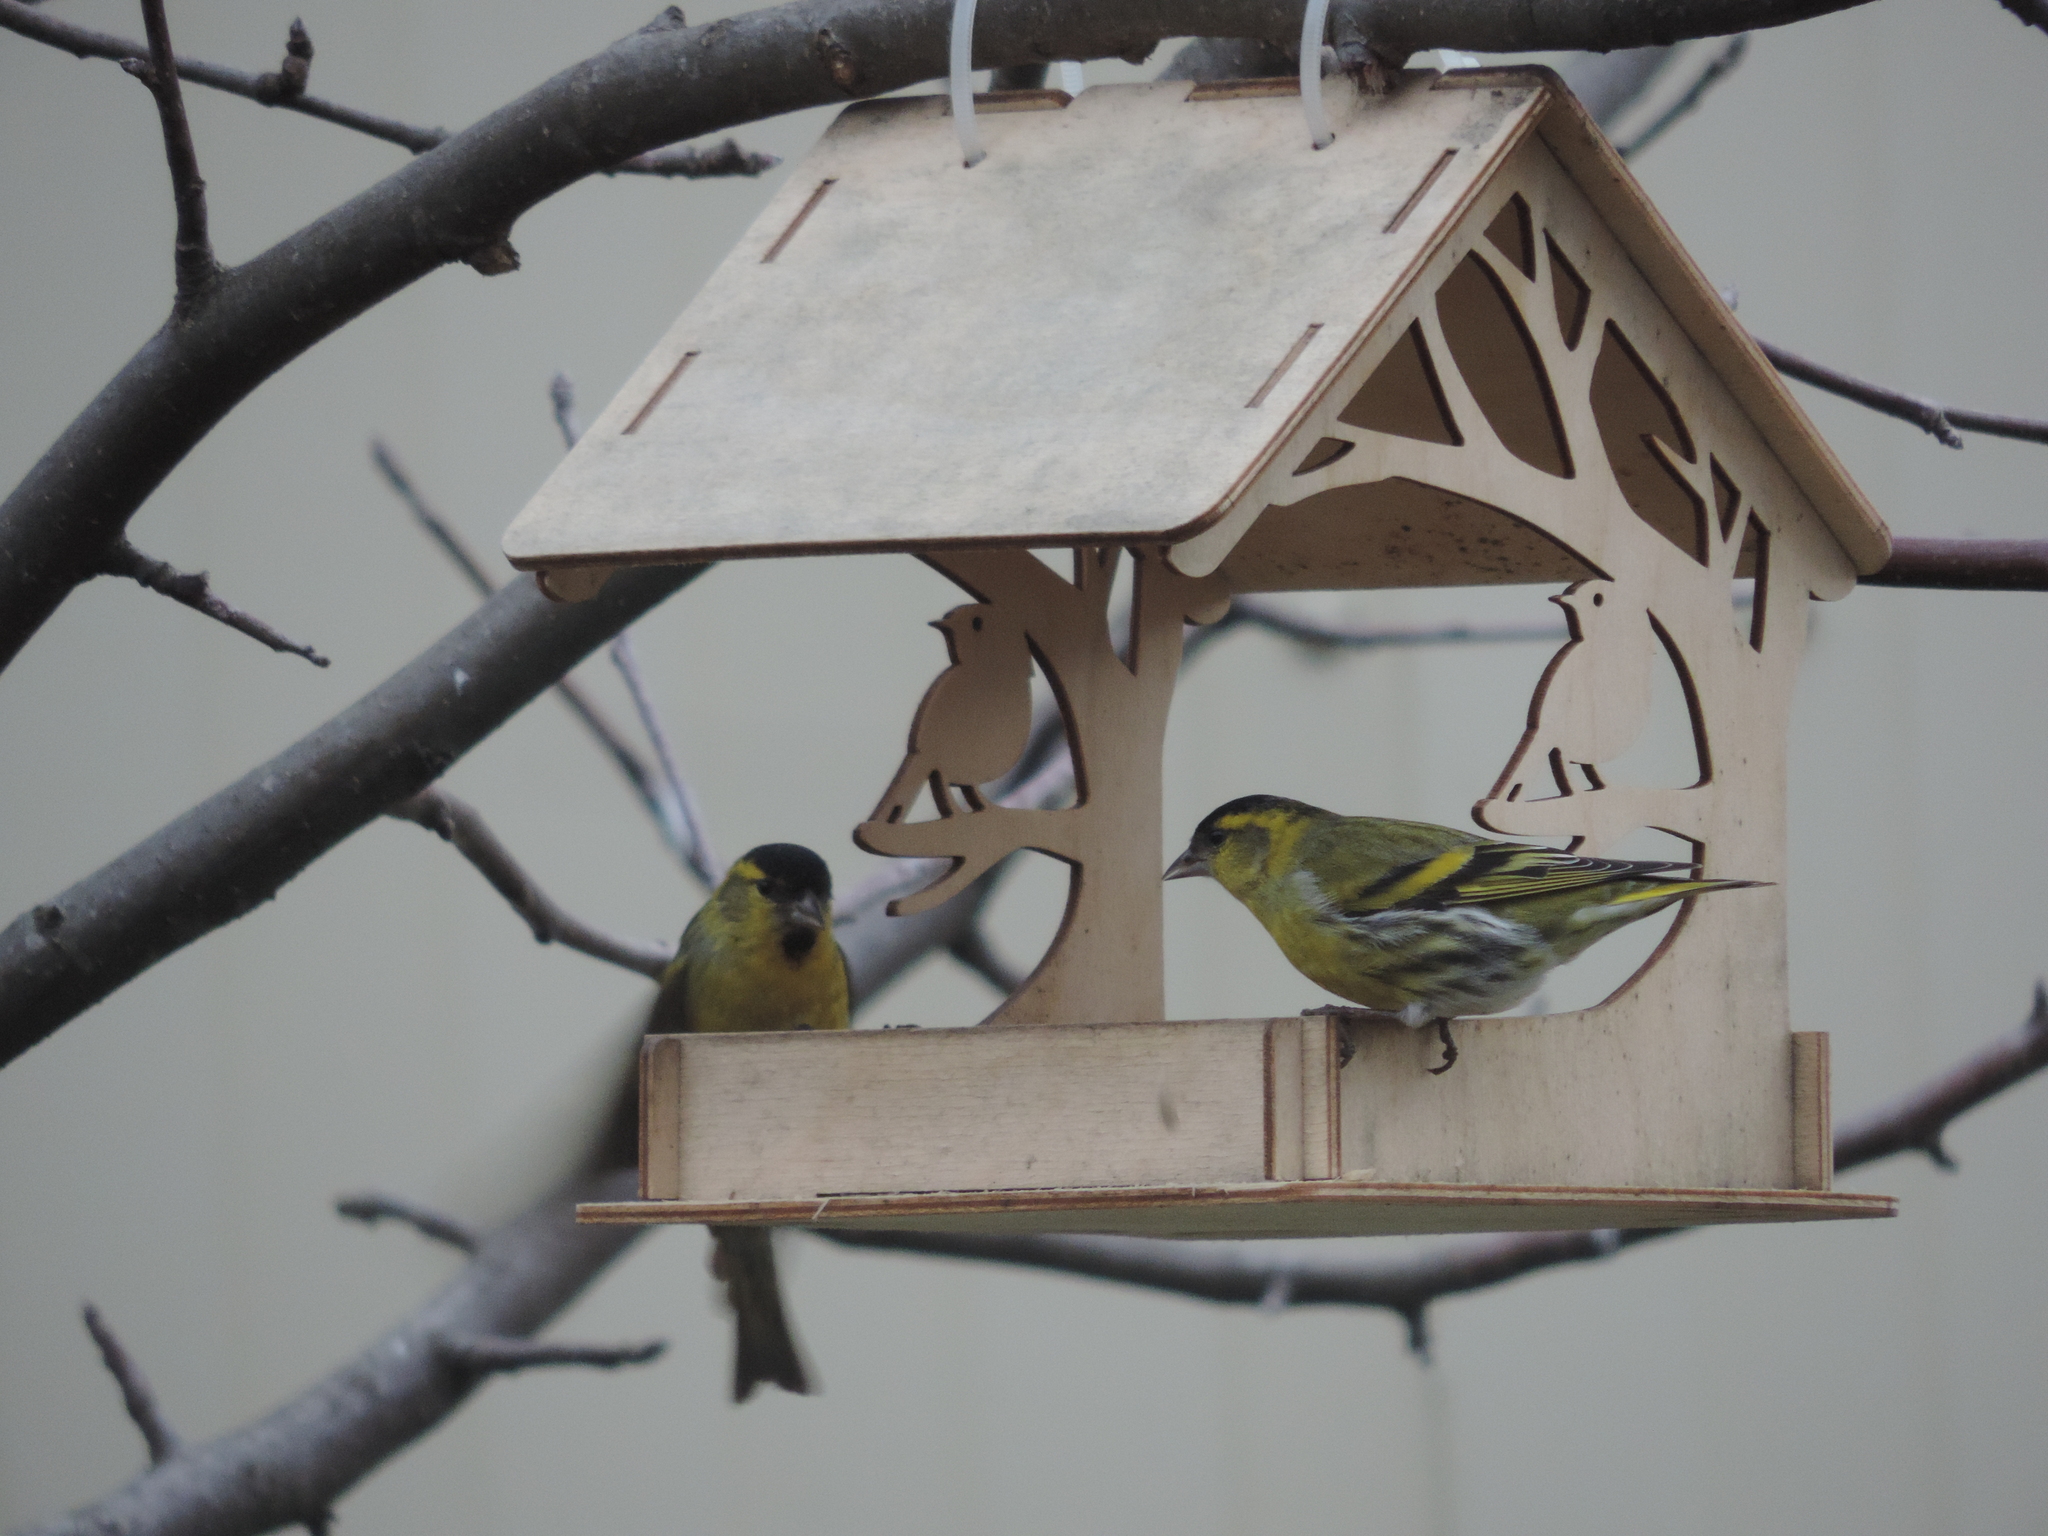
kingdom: Animalia
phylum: Chordata
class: Aves
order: Passeriformes
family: Fringillidae
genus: Spinus
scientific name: Spinus spinus
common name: Eurasian siskin
